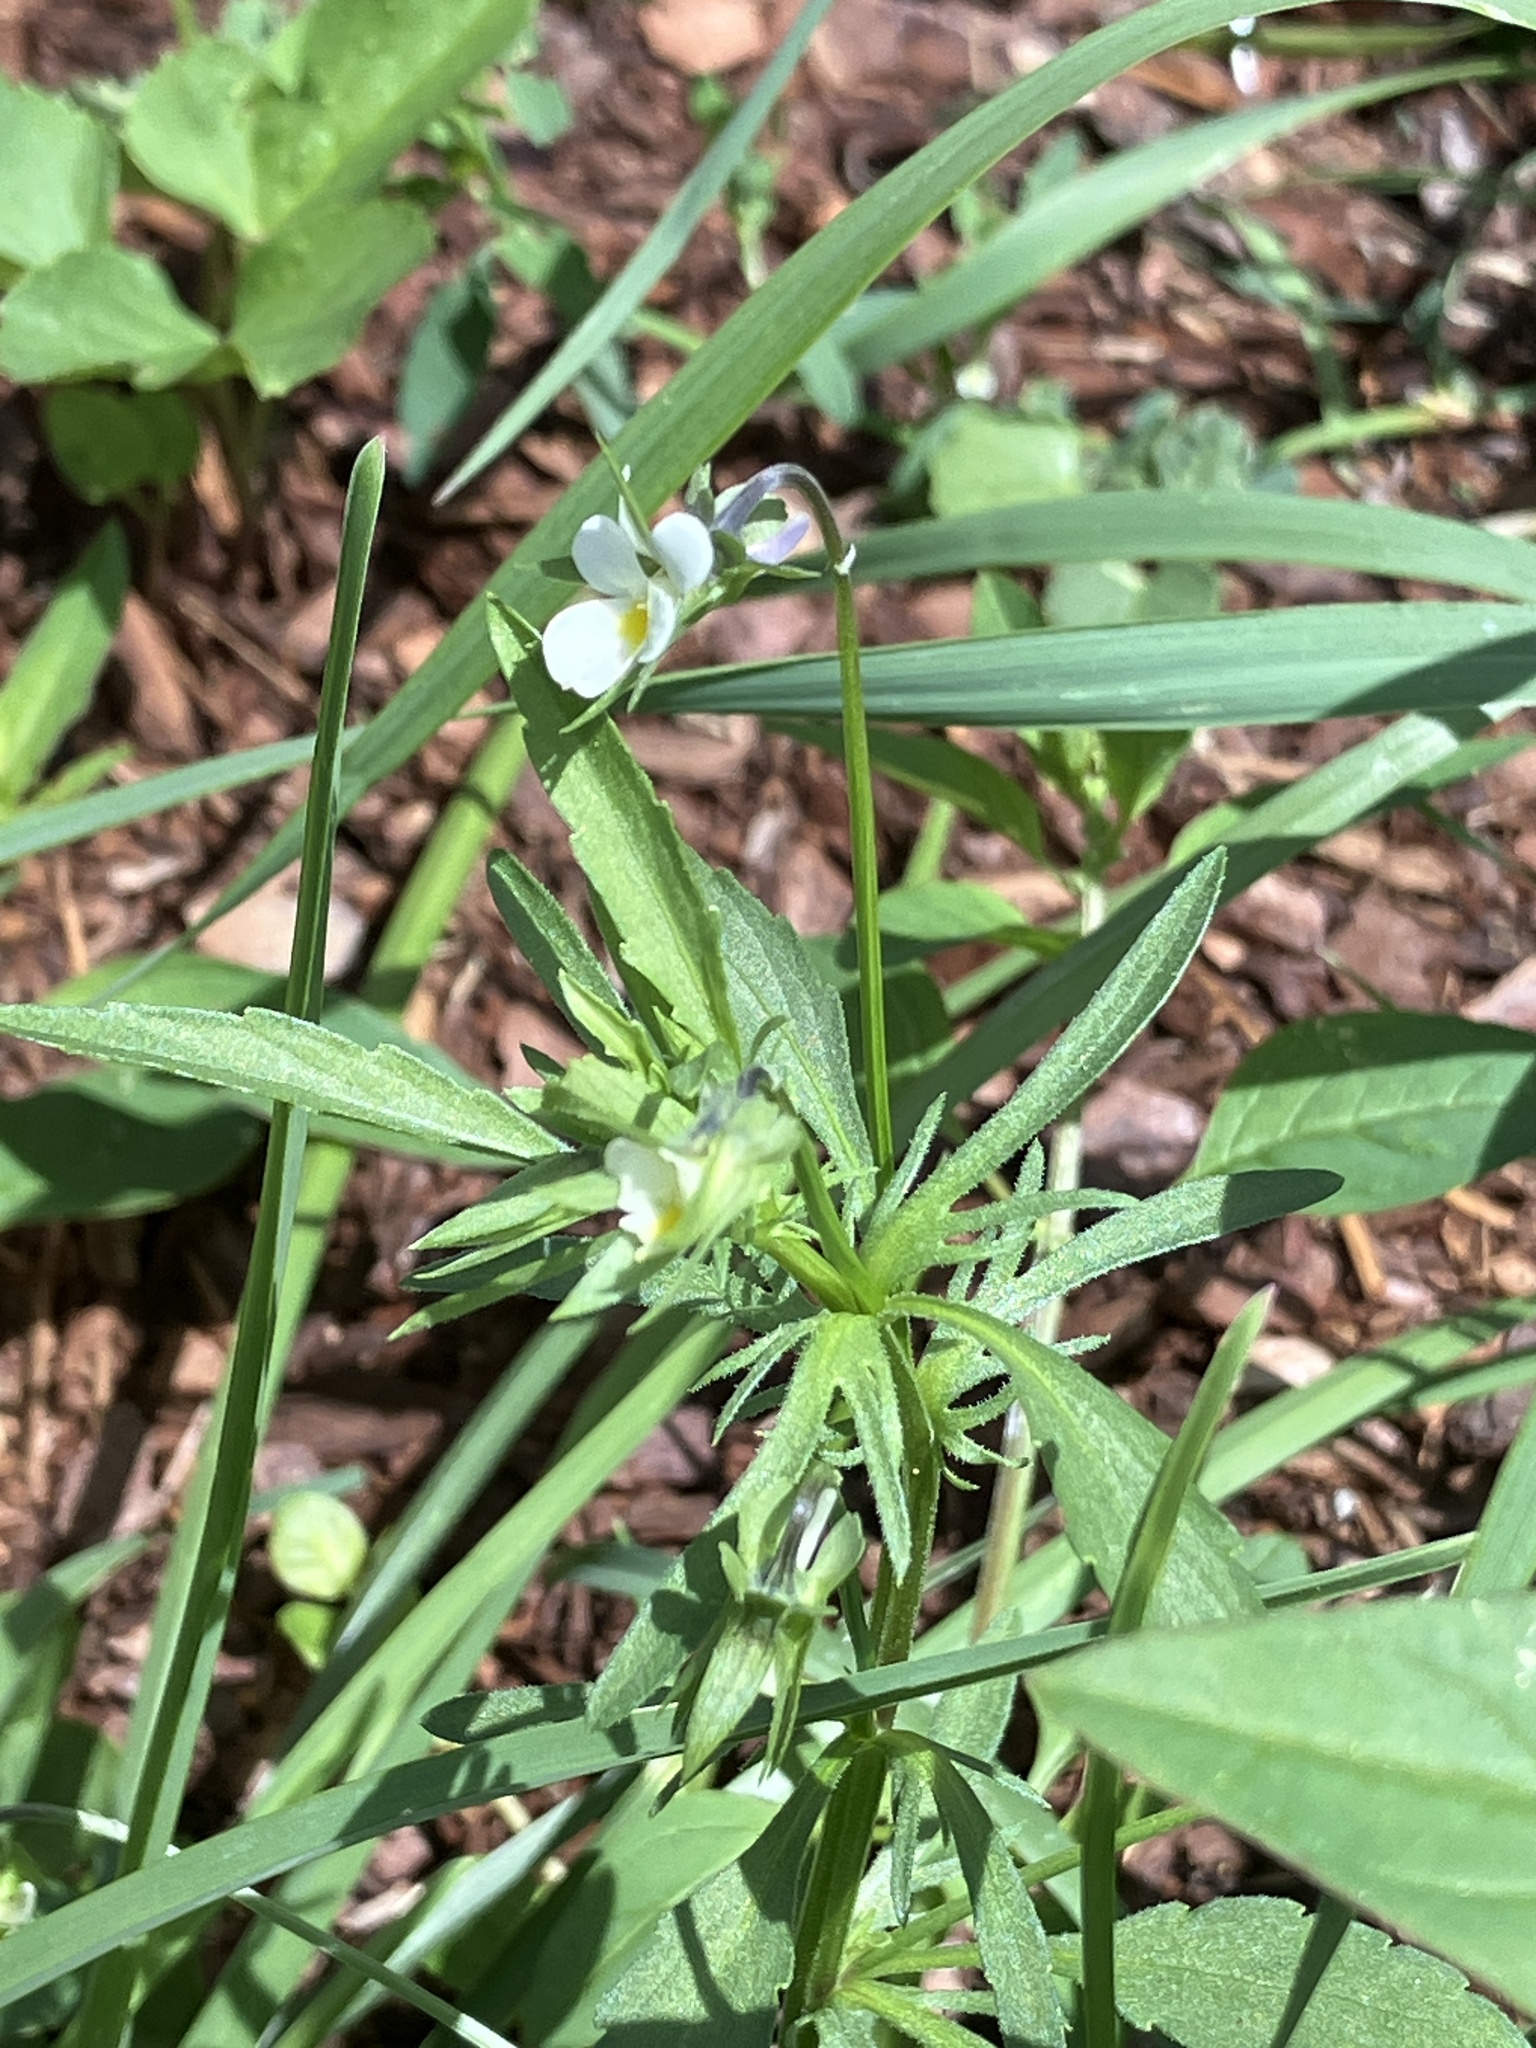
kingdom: Plantae
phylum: Tracheophyta
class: Magnoliopsida
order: Malpighiales
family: Violaceae
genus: Viola
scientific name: Viola arvensis
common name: Field pansy
